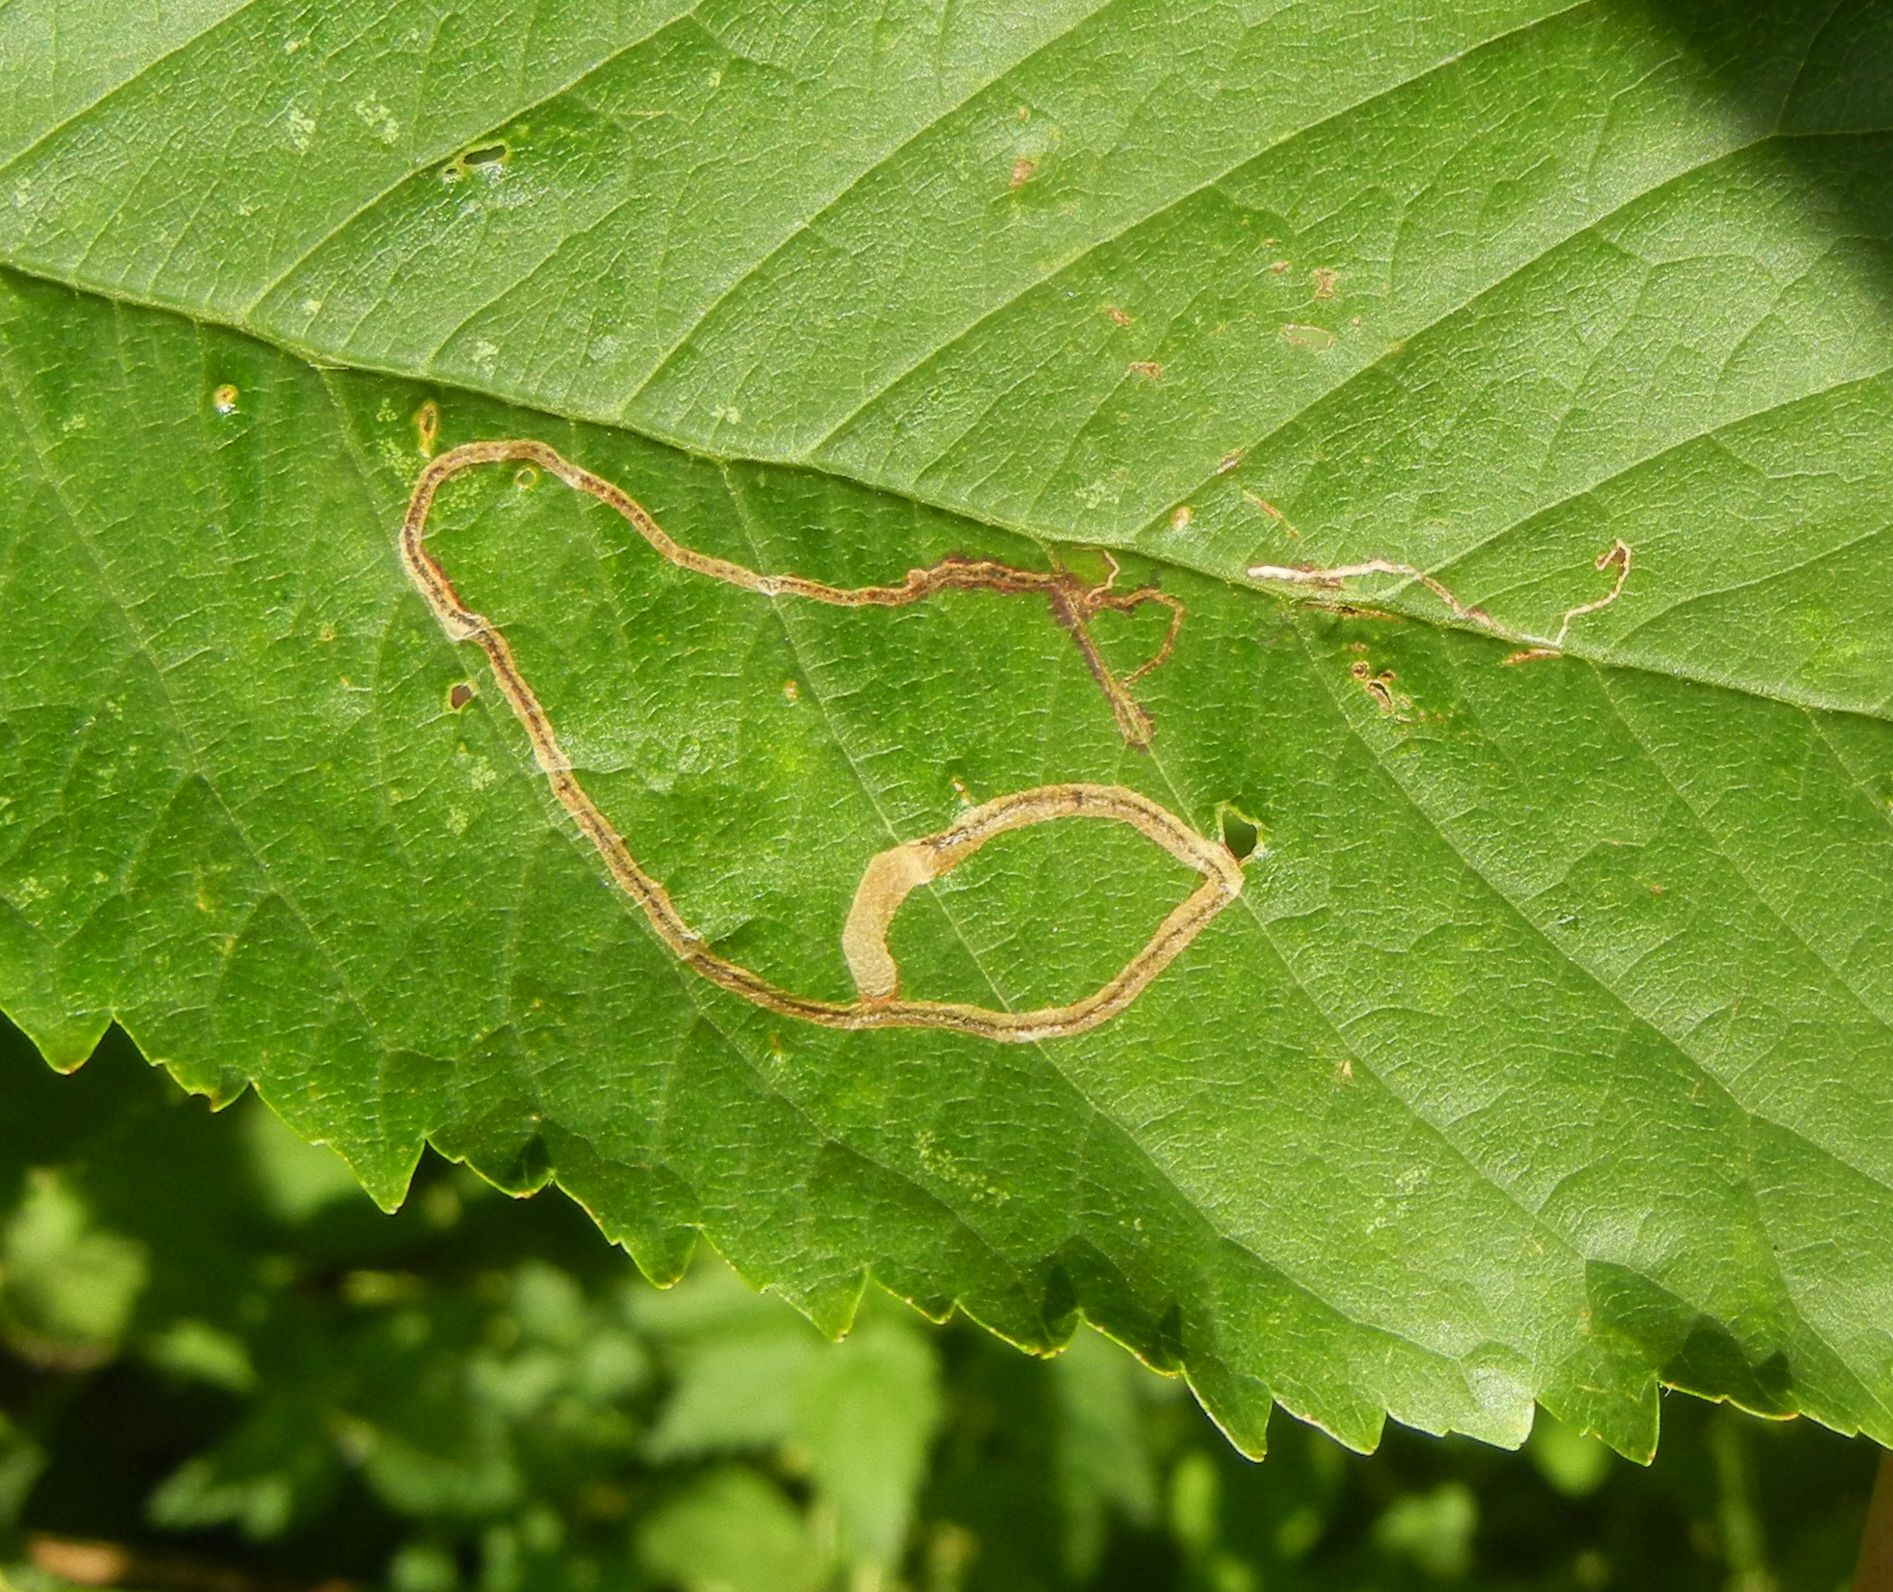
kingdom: Animalia
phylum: Arthropoda
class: Insecta
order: Lepidoptera
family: Lyonetiidae
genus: Lyonetia
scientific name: Lyonetia clerkella
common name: Apple leaf miner
